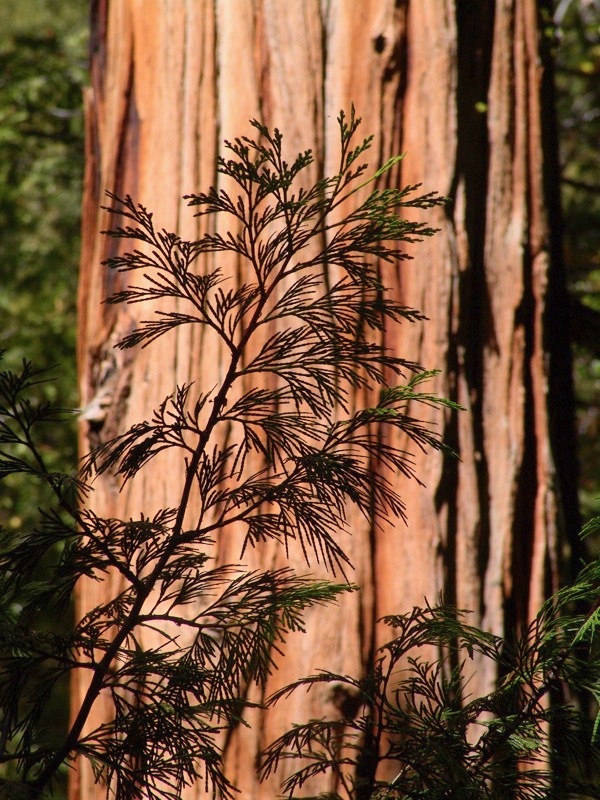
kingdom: Plantae
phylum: Tracheophyta
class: Pinopsida
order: Pinales
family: Cupressaceae
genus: Calocedrus
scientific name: Calocedrus decurrens
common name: Californian incense-cedar
